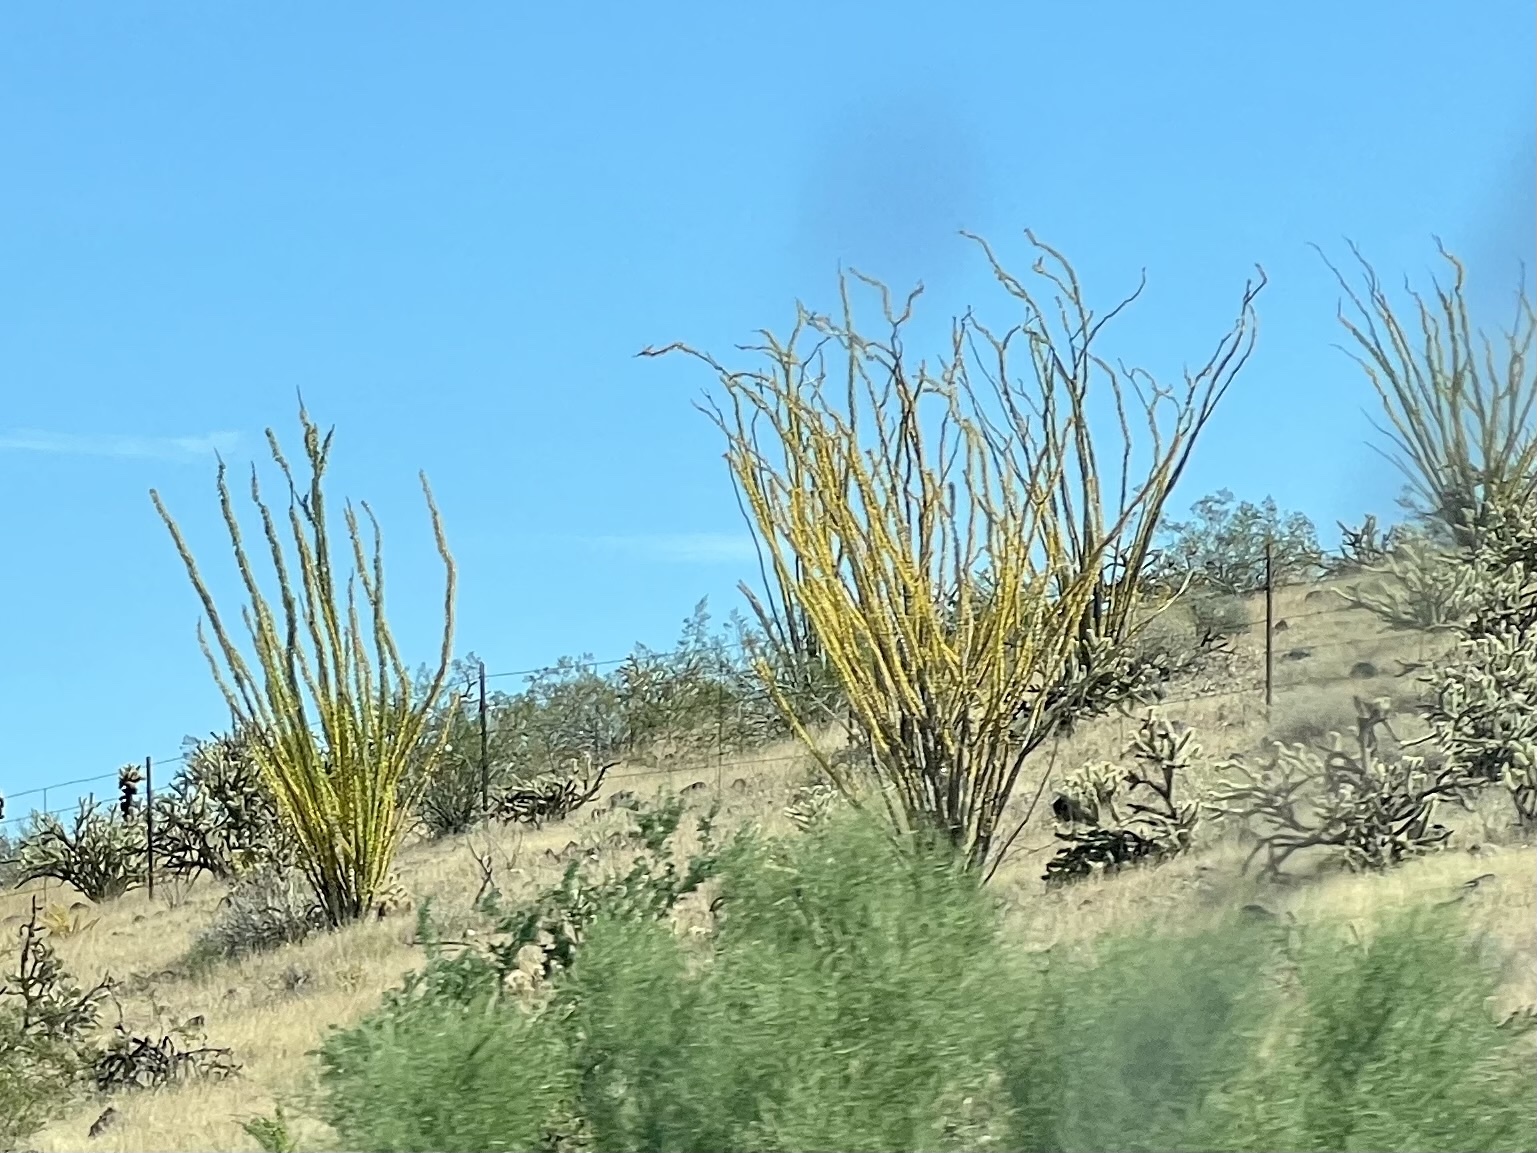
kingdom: Plantae
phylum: Tracheophyta
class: Magnoliopsida
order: Ericales
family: Fouquieriaceae
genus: Fouquieria
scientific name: Fouquieria splendens
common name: Vine-cactus
